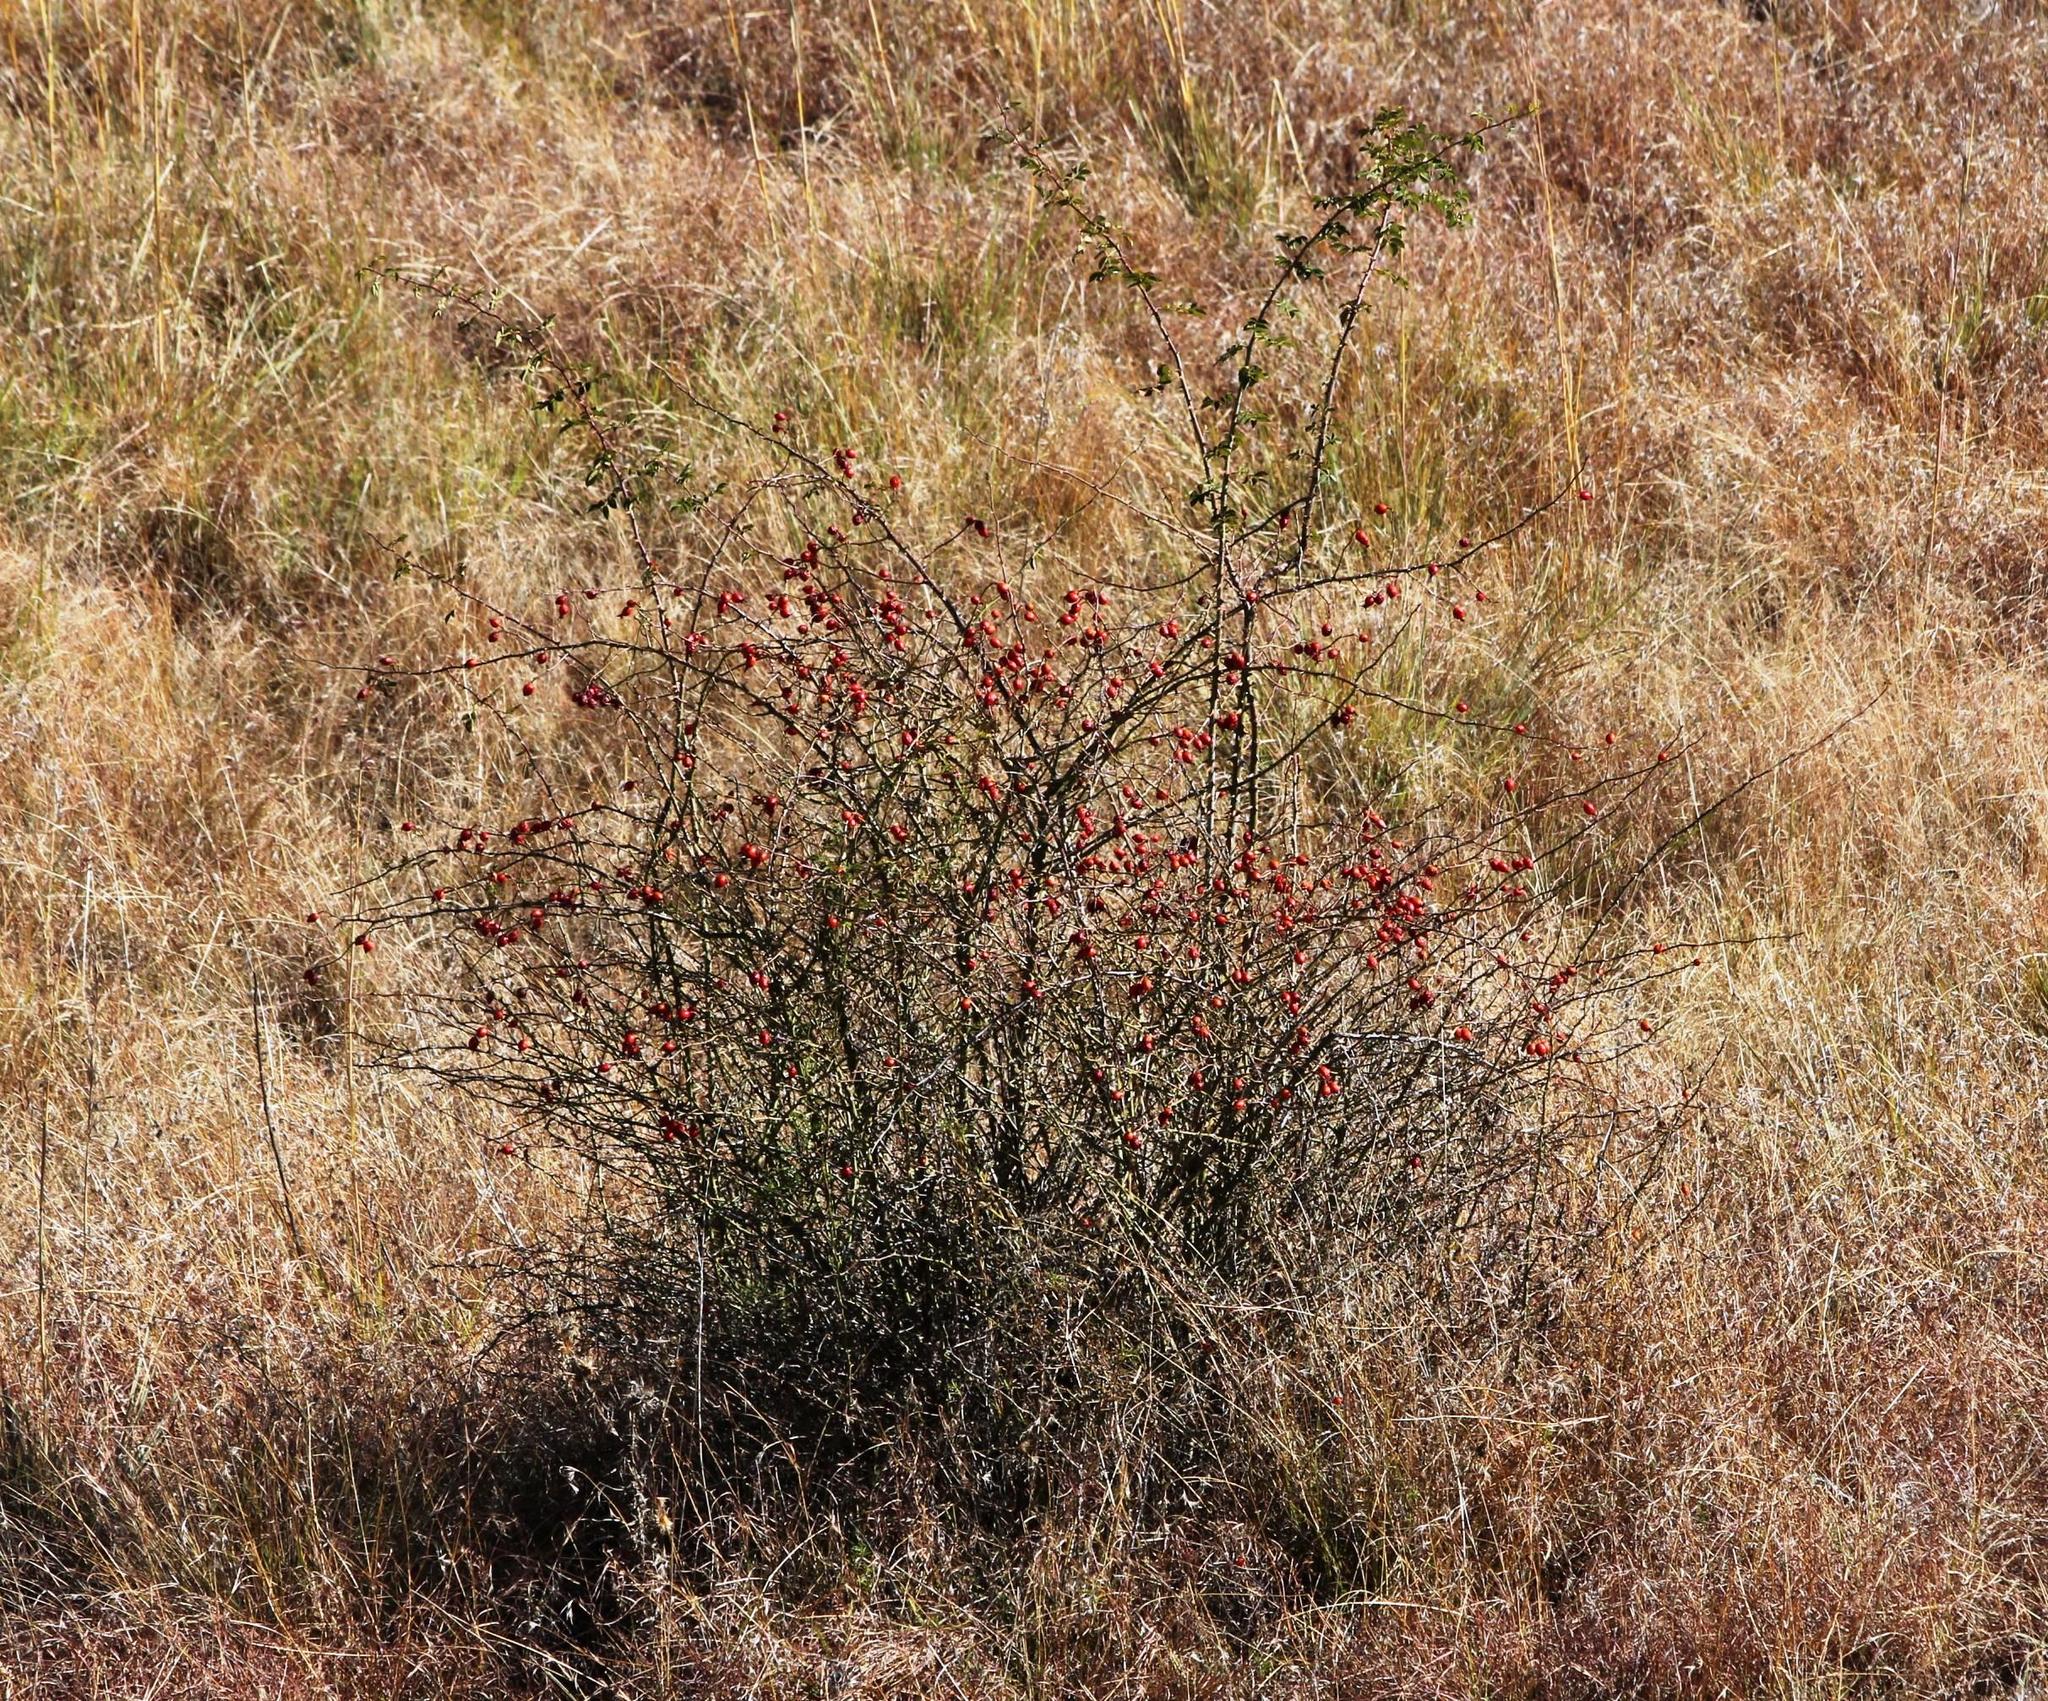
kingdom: Plantae
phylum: Tracheophyta
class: Magnoliopsida
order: Rosales
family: Rosaceae
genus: Rosa
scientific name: Rosa rubiginosa
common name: Sweet-briar
